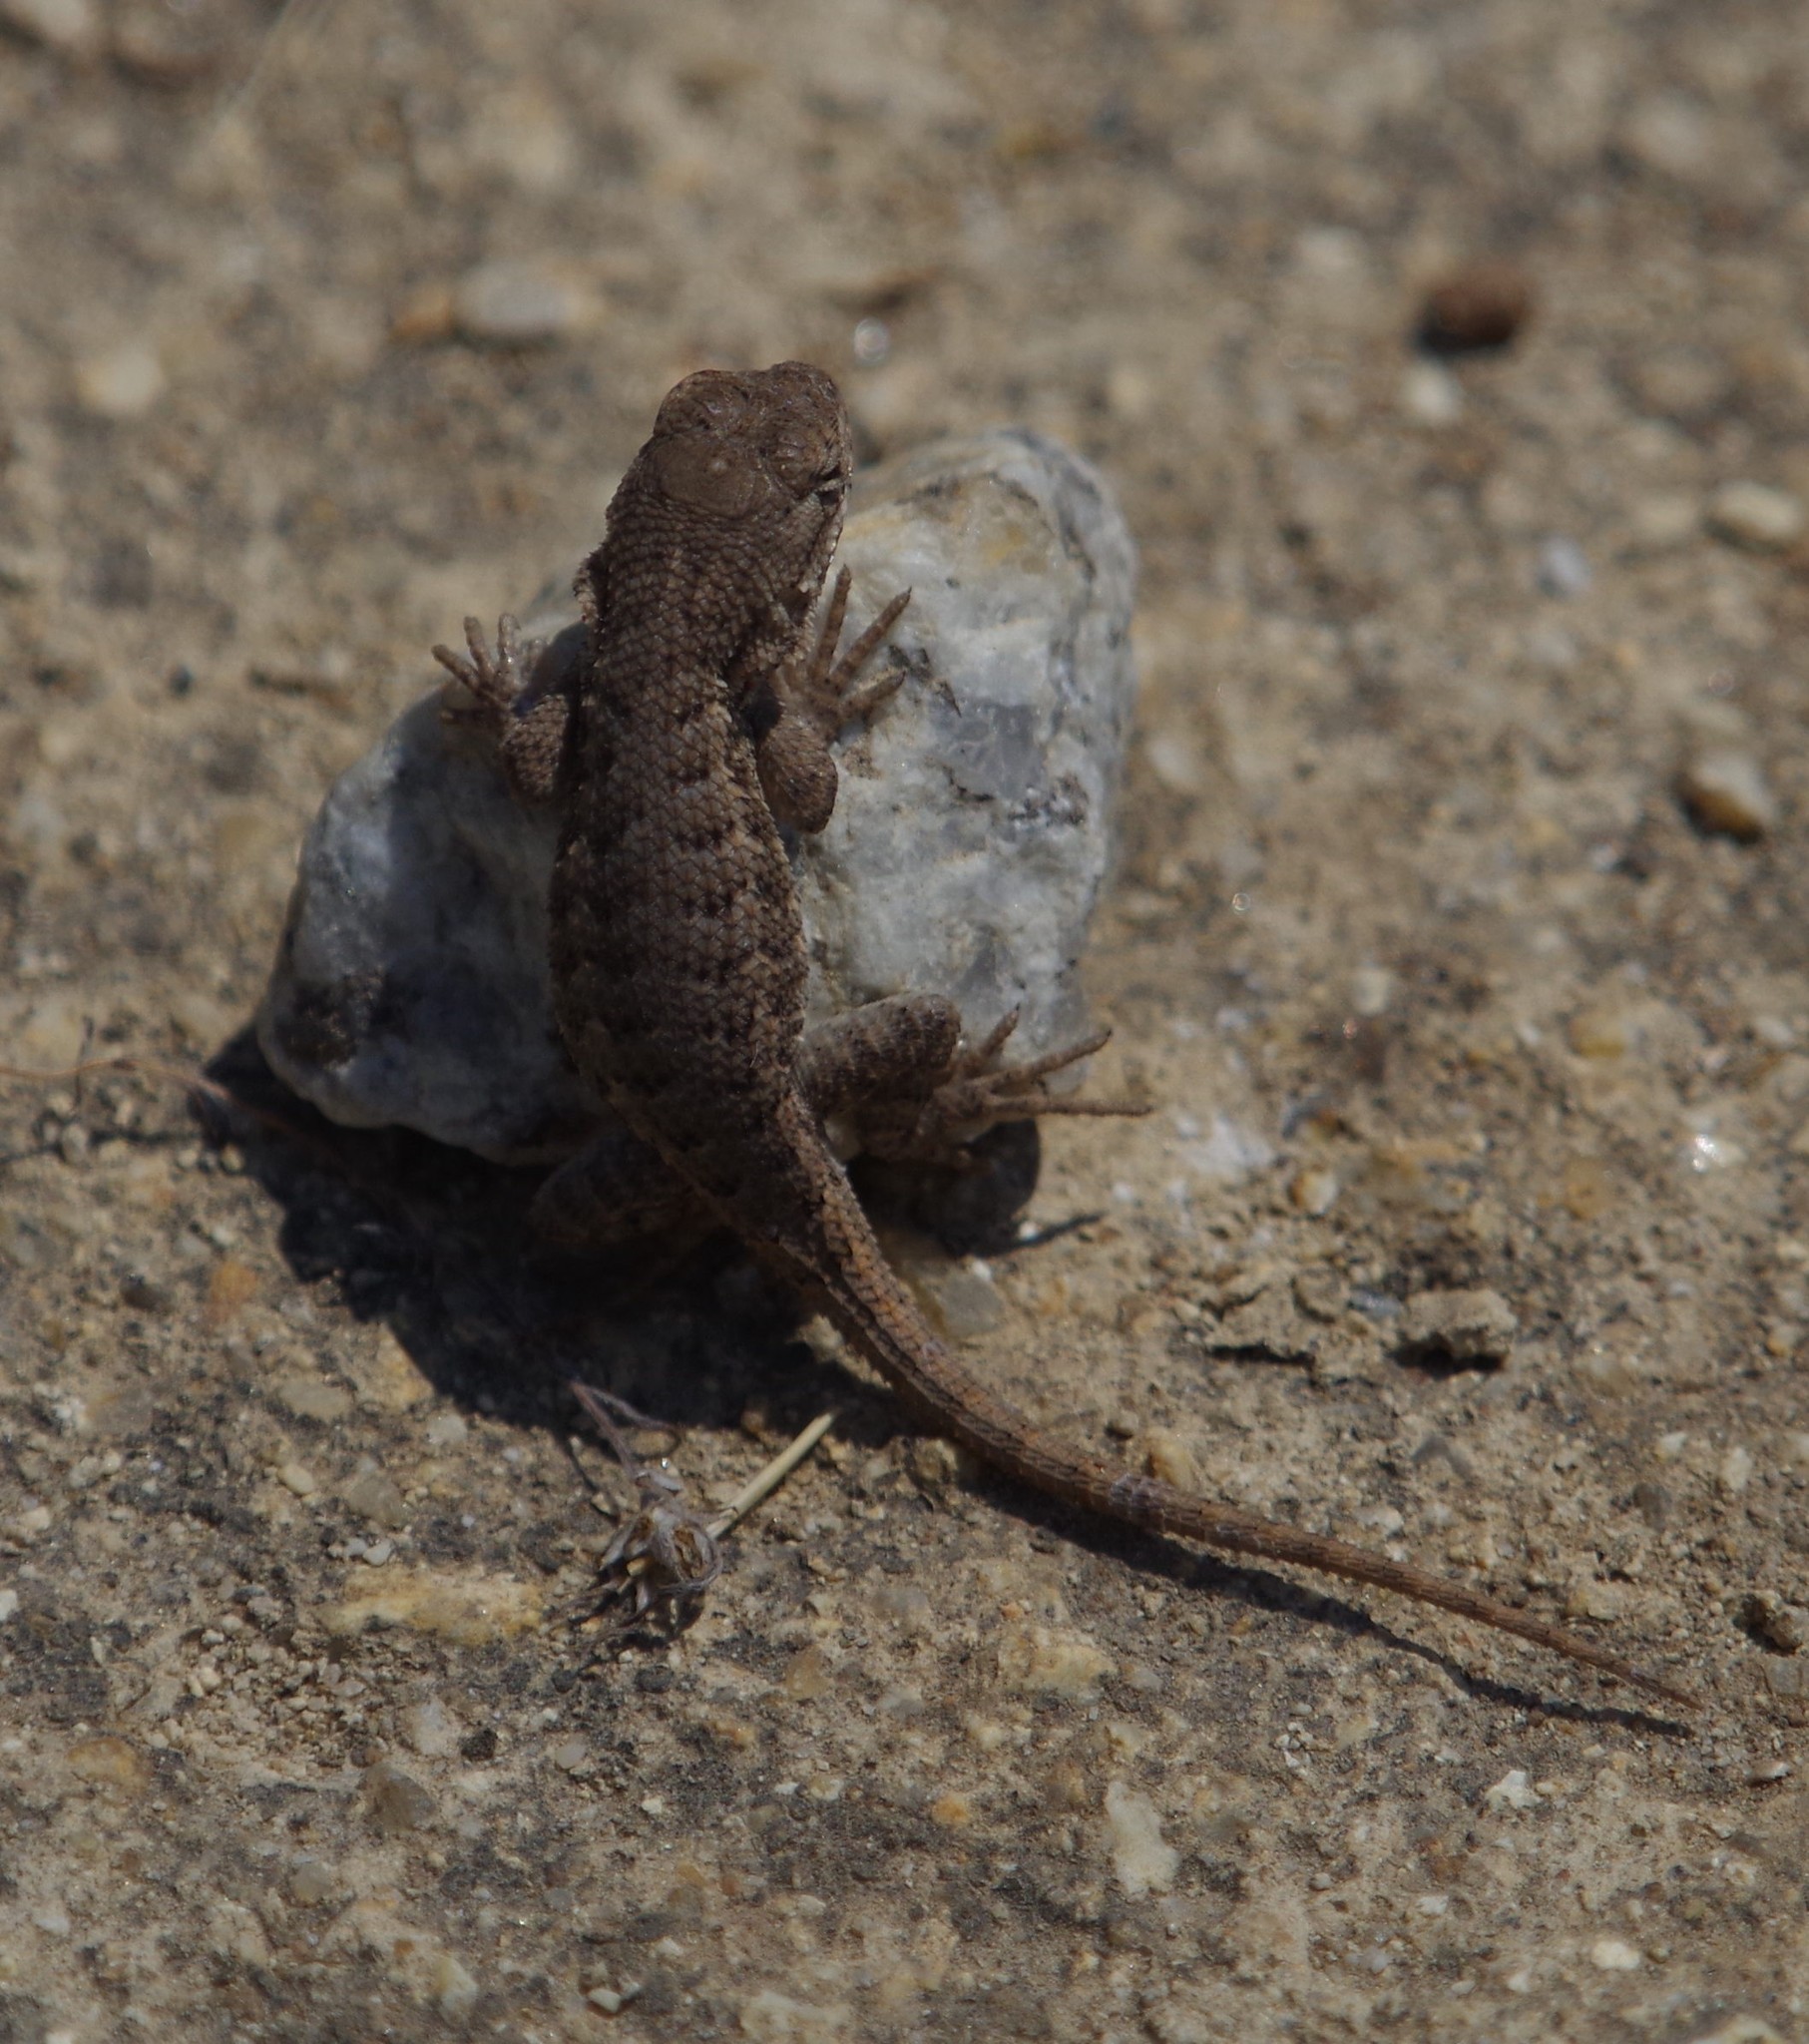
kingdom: Animalia
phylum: Chordata
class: Squamata
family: Phrynosomatidae
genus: Sceloporus
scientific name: Sceloporus occidentalis
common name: Western fence lizard
